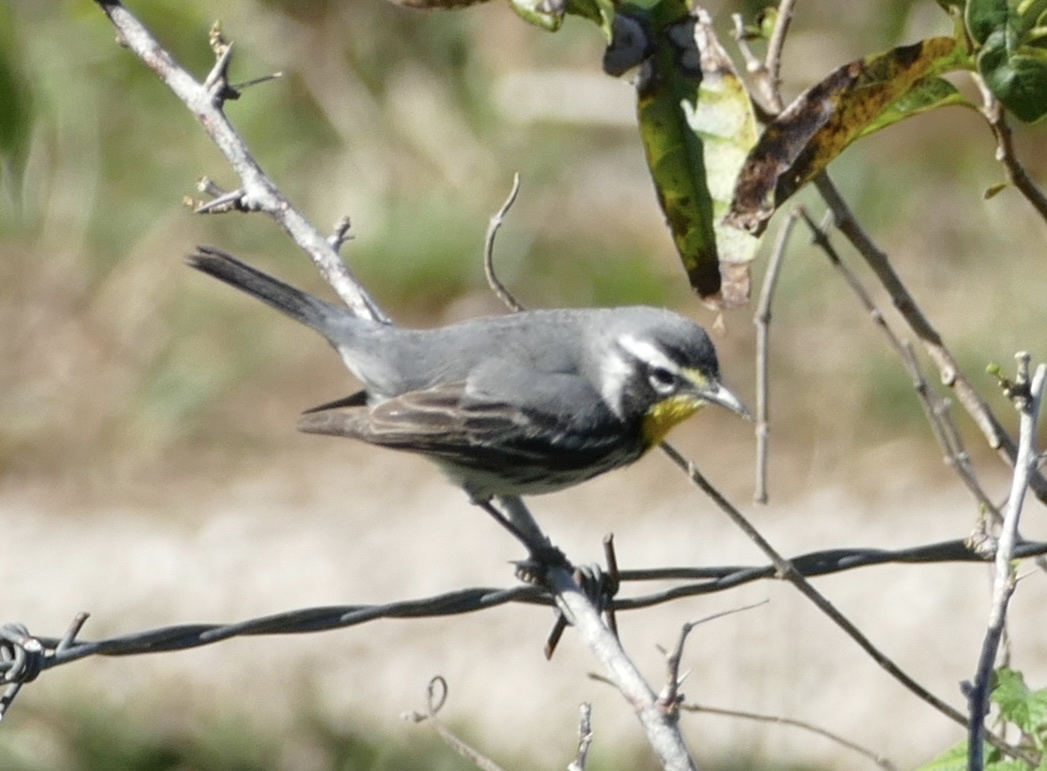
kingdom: Animalia
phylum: Chordata
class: Aves
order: Passeriformes
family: Parulidae
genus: Setophaga
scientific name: Setophaga dominica
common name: Yellow-throated warbler
